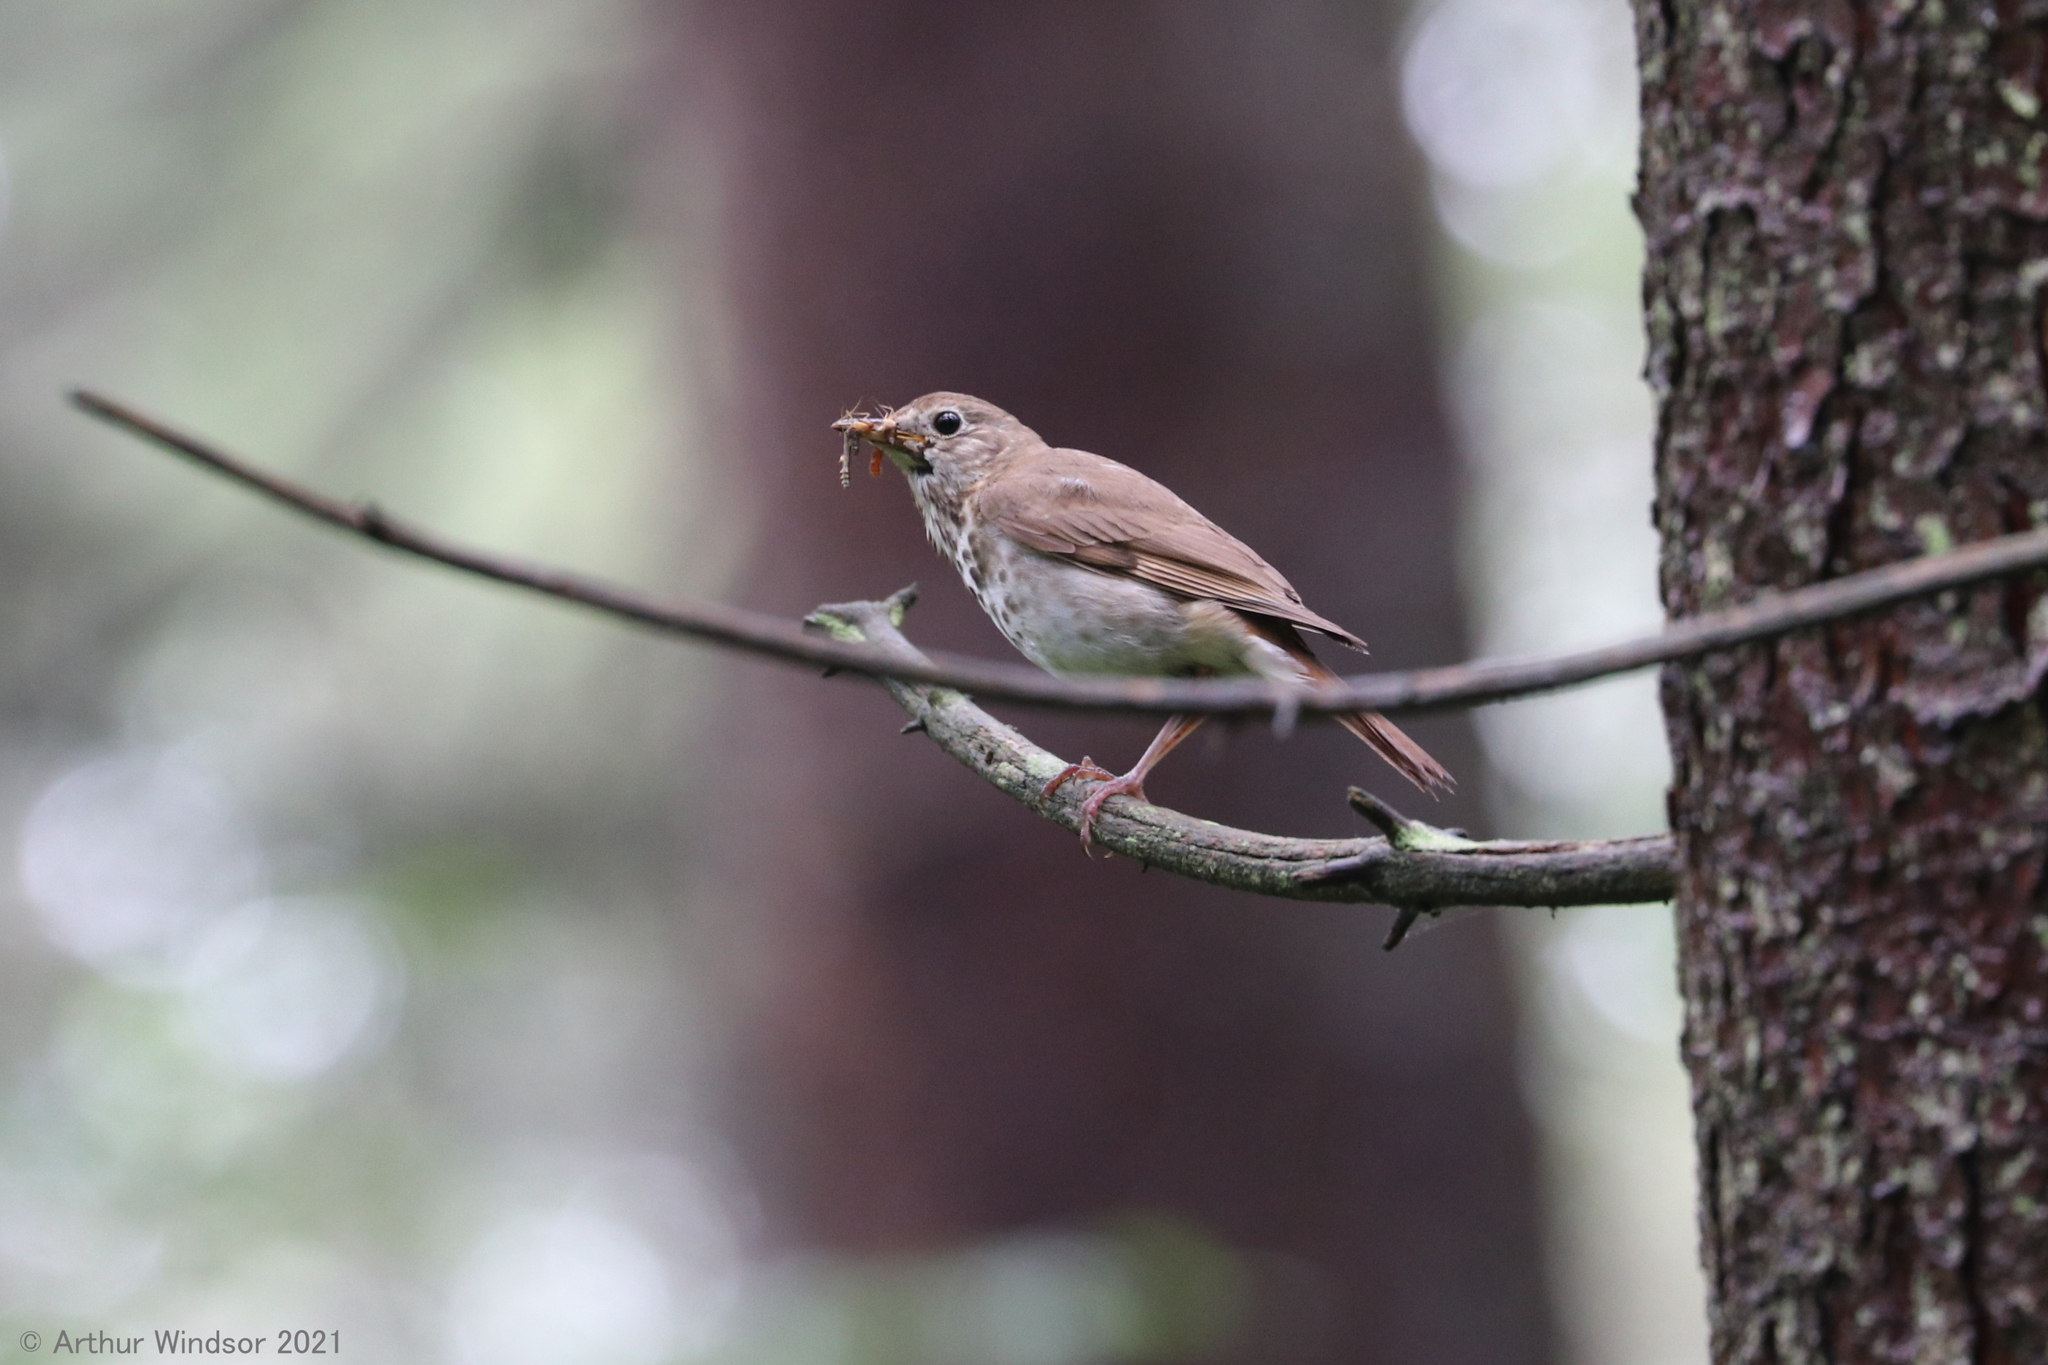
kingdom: Animalia
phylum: Chordata
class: Aves
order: Passeriformes
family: Turdidae
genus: Catharus
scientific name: Catharus guttatus
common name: Hermit thrush
